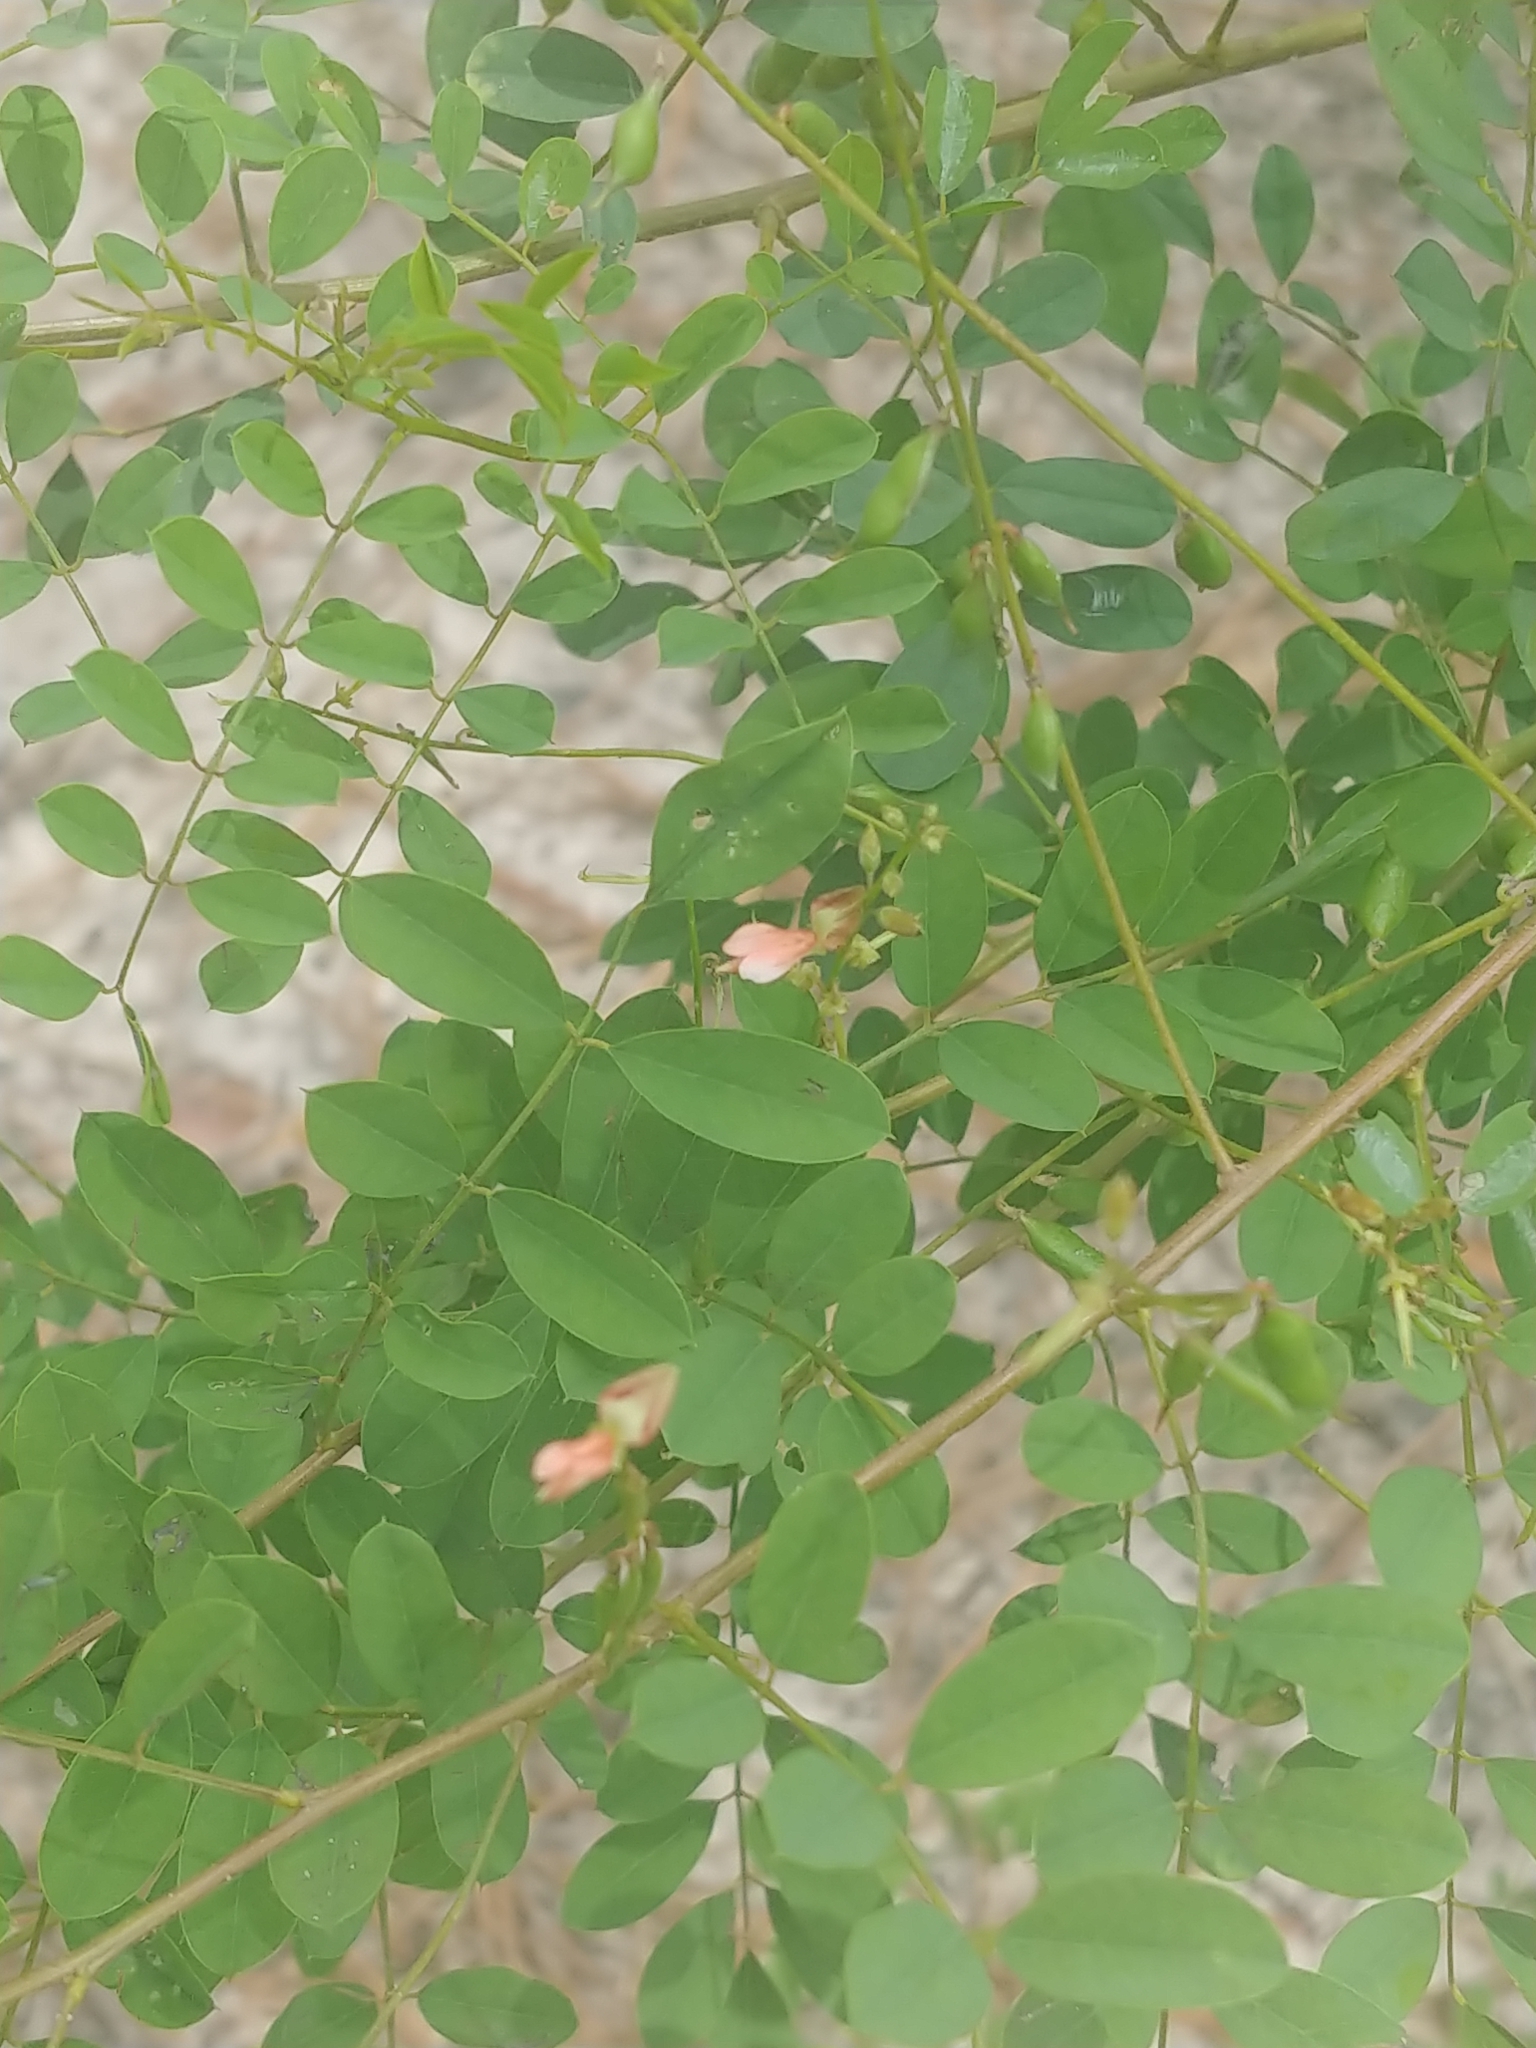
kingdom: Plantae
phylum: Tracheophyta
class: Magnoliopsida
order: Fabales
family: Fabaceae
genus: Indigofera
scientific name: Indigofera caroliniana
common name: Wild indigo
